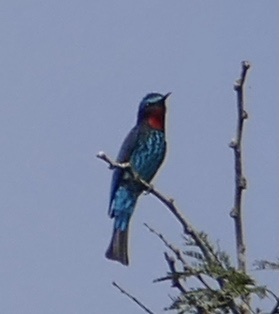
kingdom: Animalia
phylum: Chordata
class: Aves
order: Coraciiformes
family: Meropidae
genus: Merops
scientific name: Merops gularis
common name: Black bee-eater
